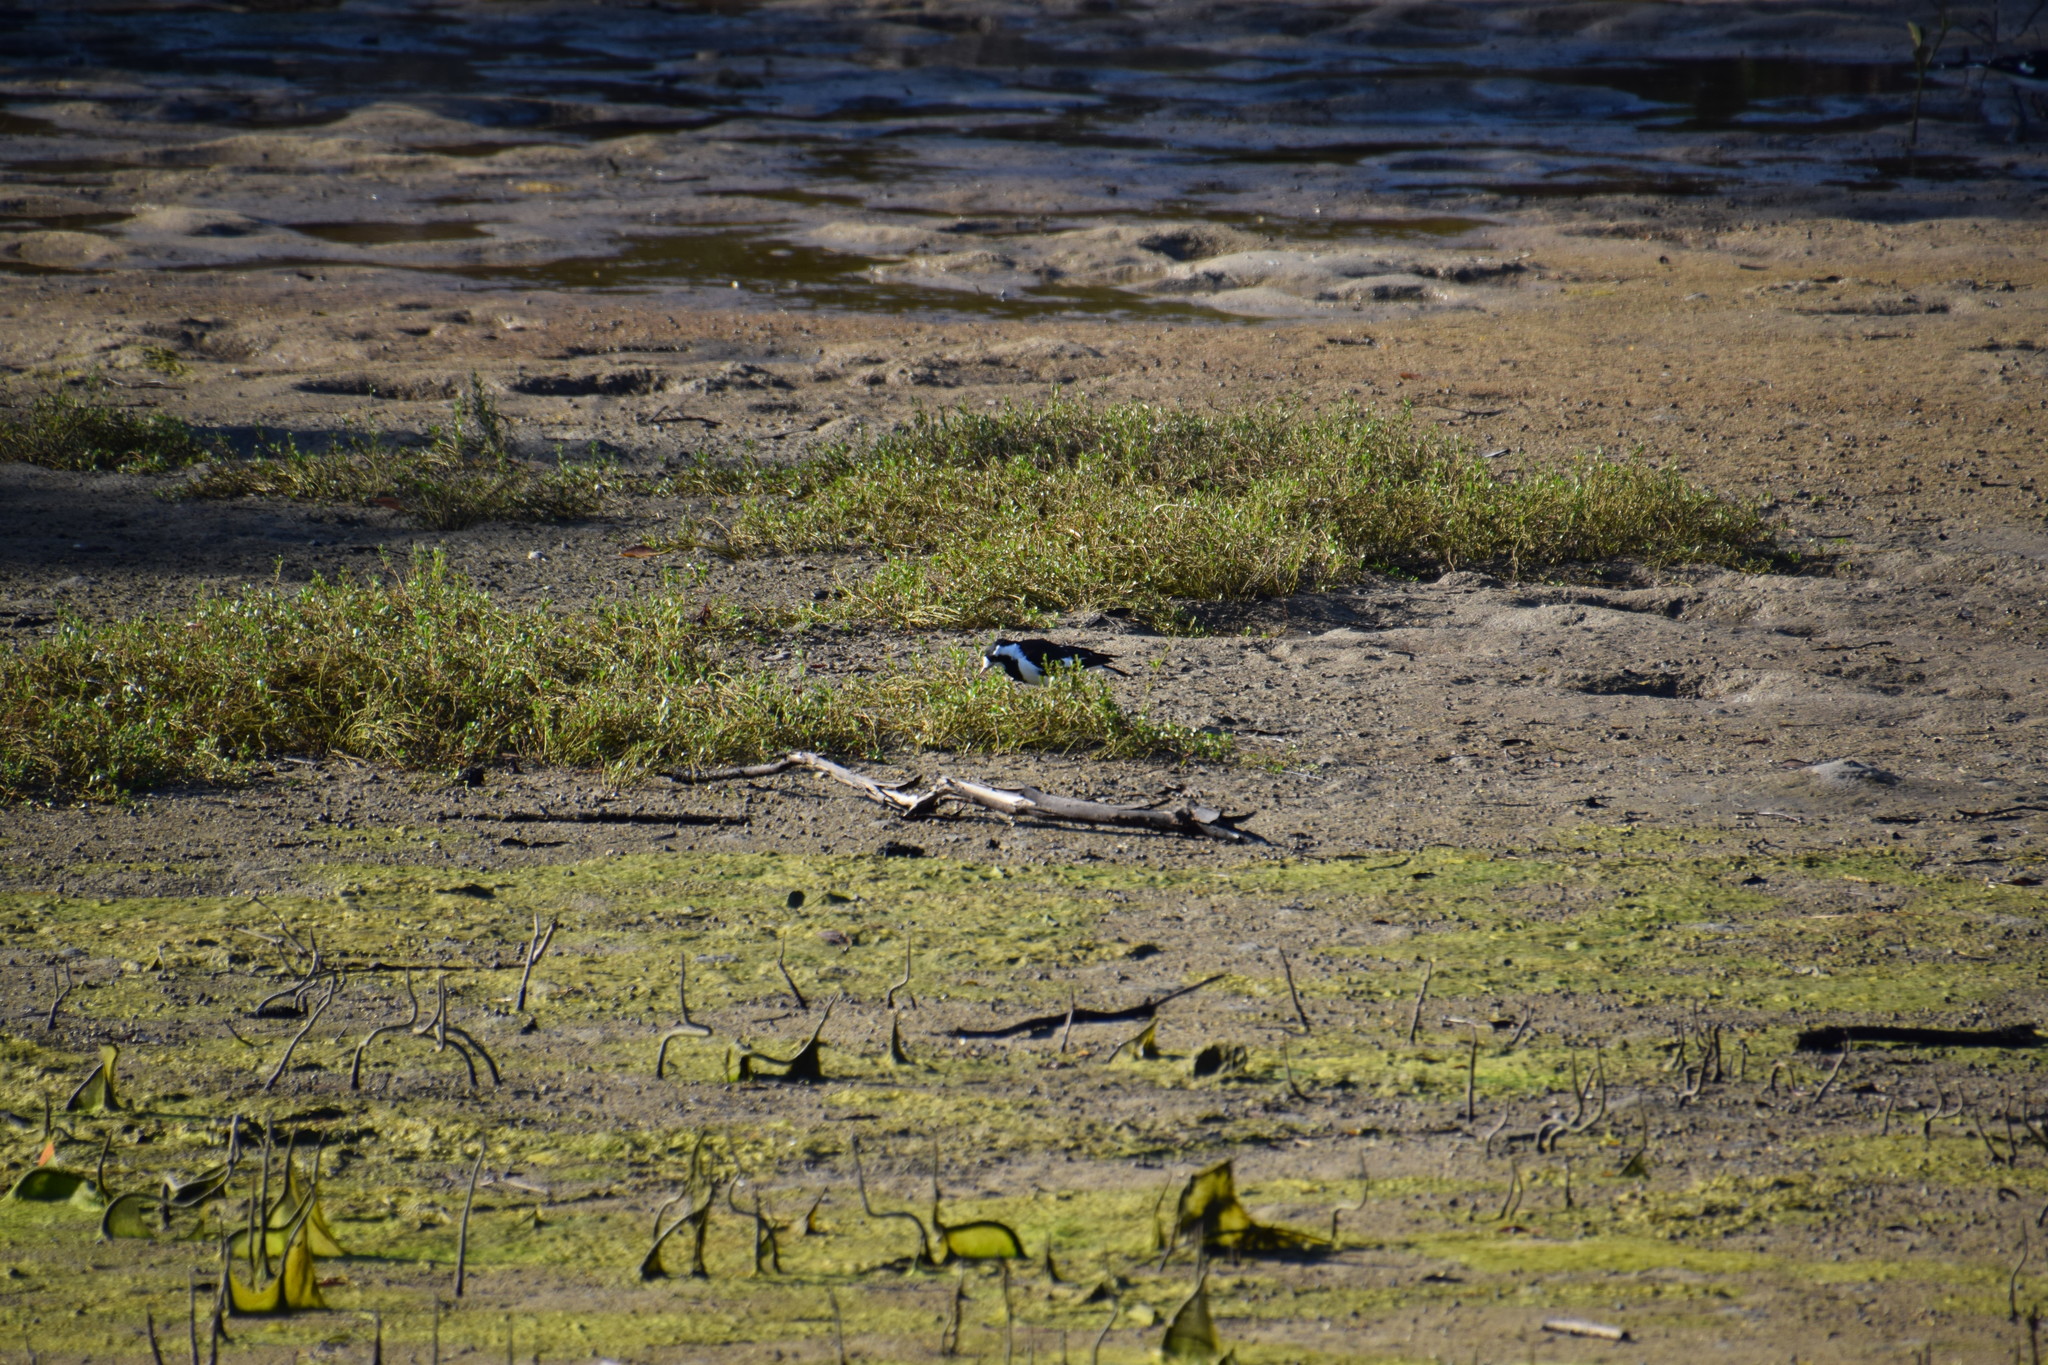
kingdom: Animalia
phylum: Chordata
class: Aves
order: Passeriformes
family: Monarchidae
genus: Grallina
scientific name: Grallina cyanoleuca
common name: Magpie-lark
